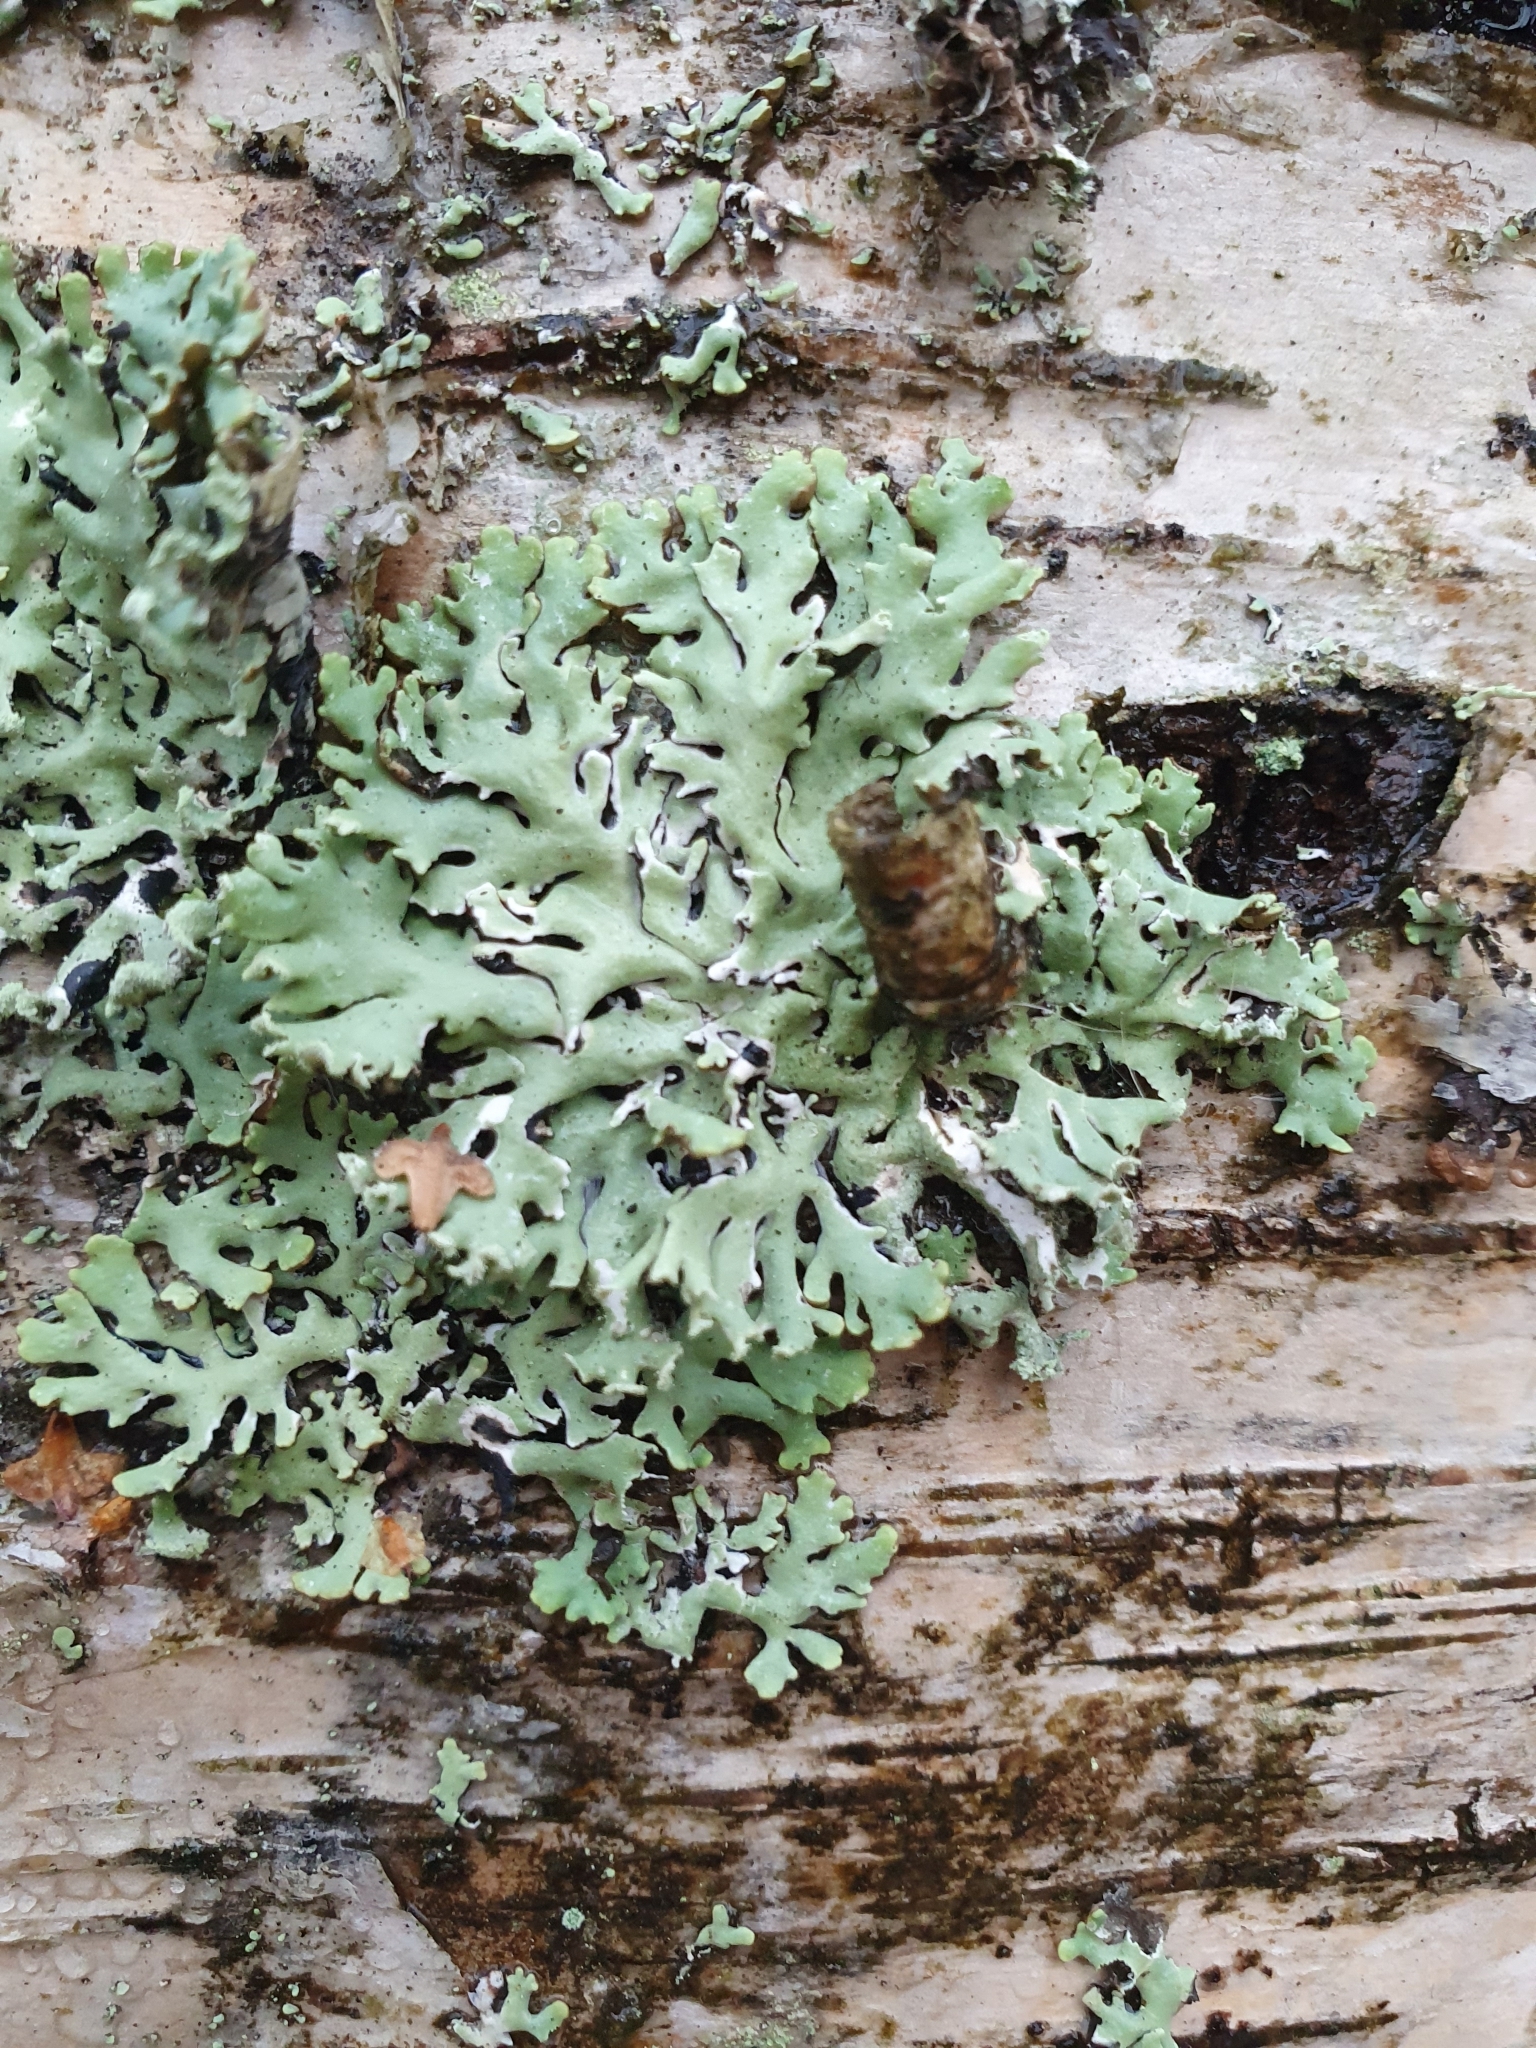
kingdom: Fungi
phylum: Ascomycota
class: Lecanoromycetes
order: Lecanorales
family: Parmeliaceae
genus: Hypogymnia
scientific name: Hypogymnia physodes
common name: Dark crottle
